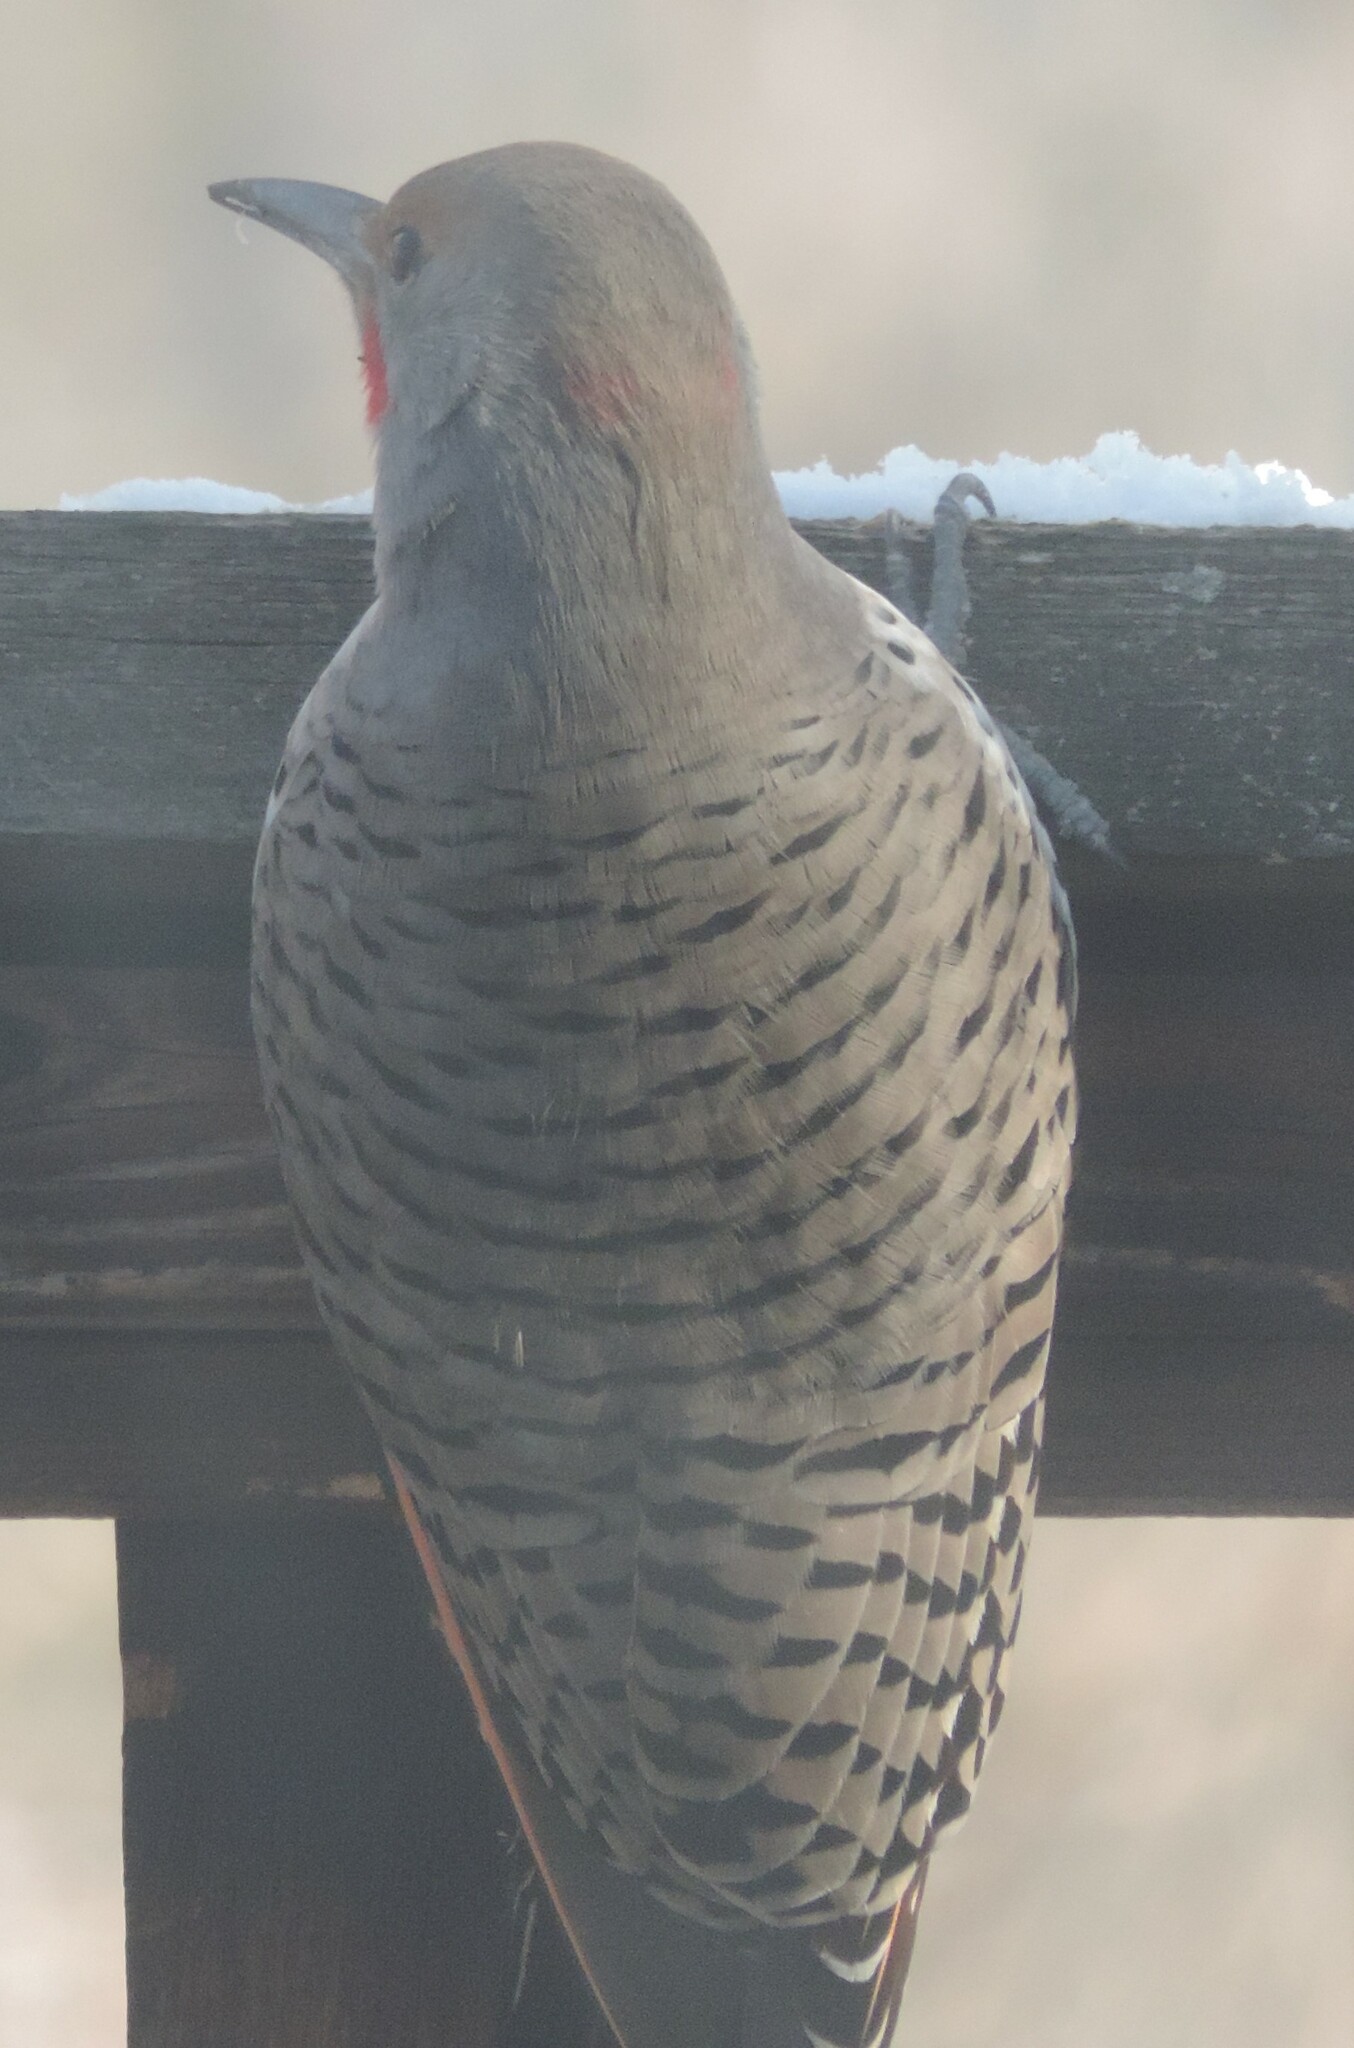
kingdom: Animalia
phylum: Chordata
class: Aves
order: Piciformes
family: Picidae
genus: Colaptes
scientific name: Colaptes auratus
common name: Northern flicker
